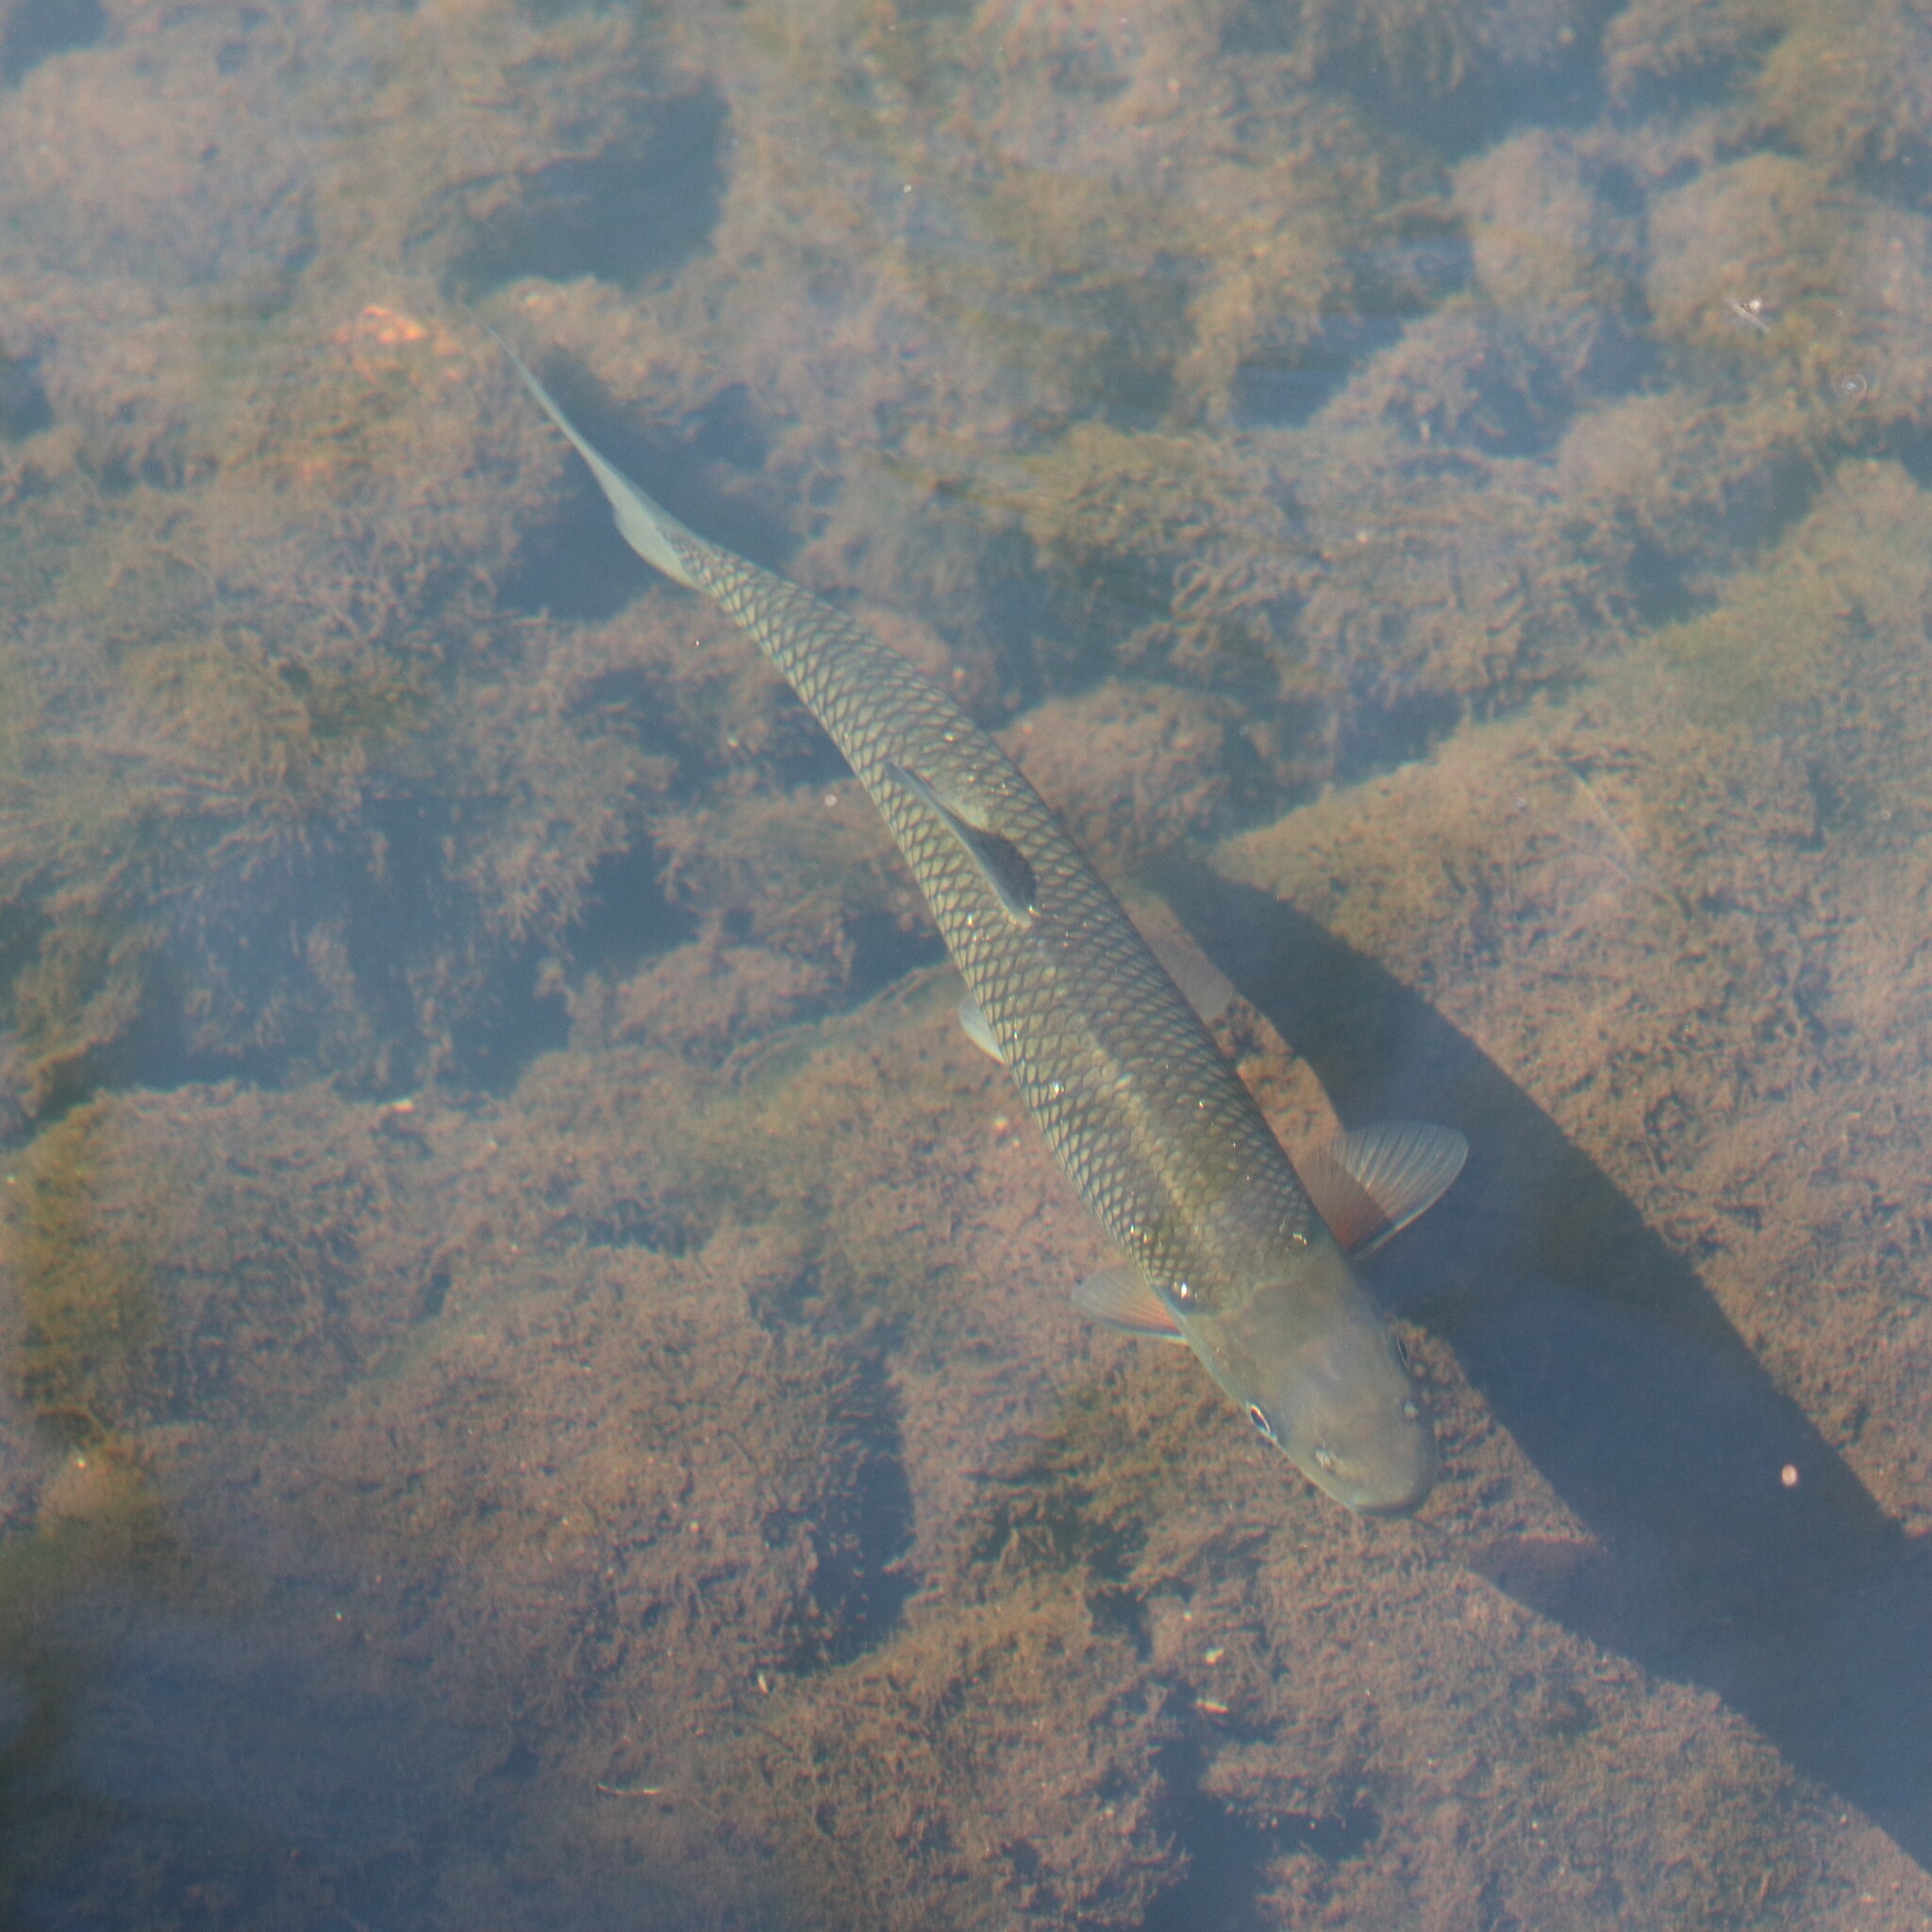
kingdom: Animalia
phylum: Chordata
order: Cypriniformes
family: Cyprinidae
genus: Semotilus
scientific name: Semotilus corporalis
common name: Fallfish
